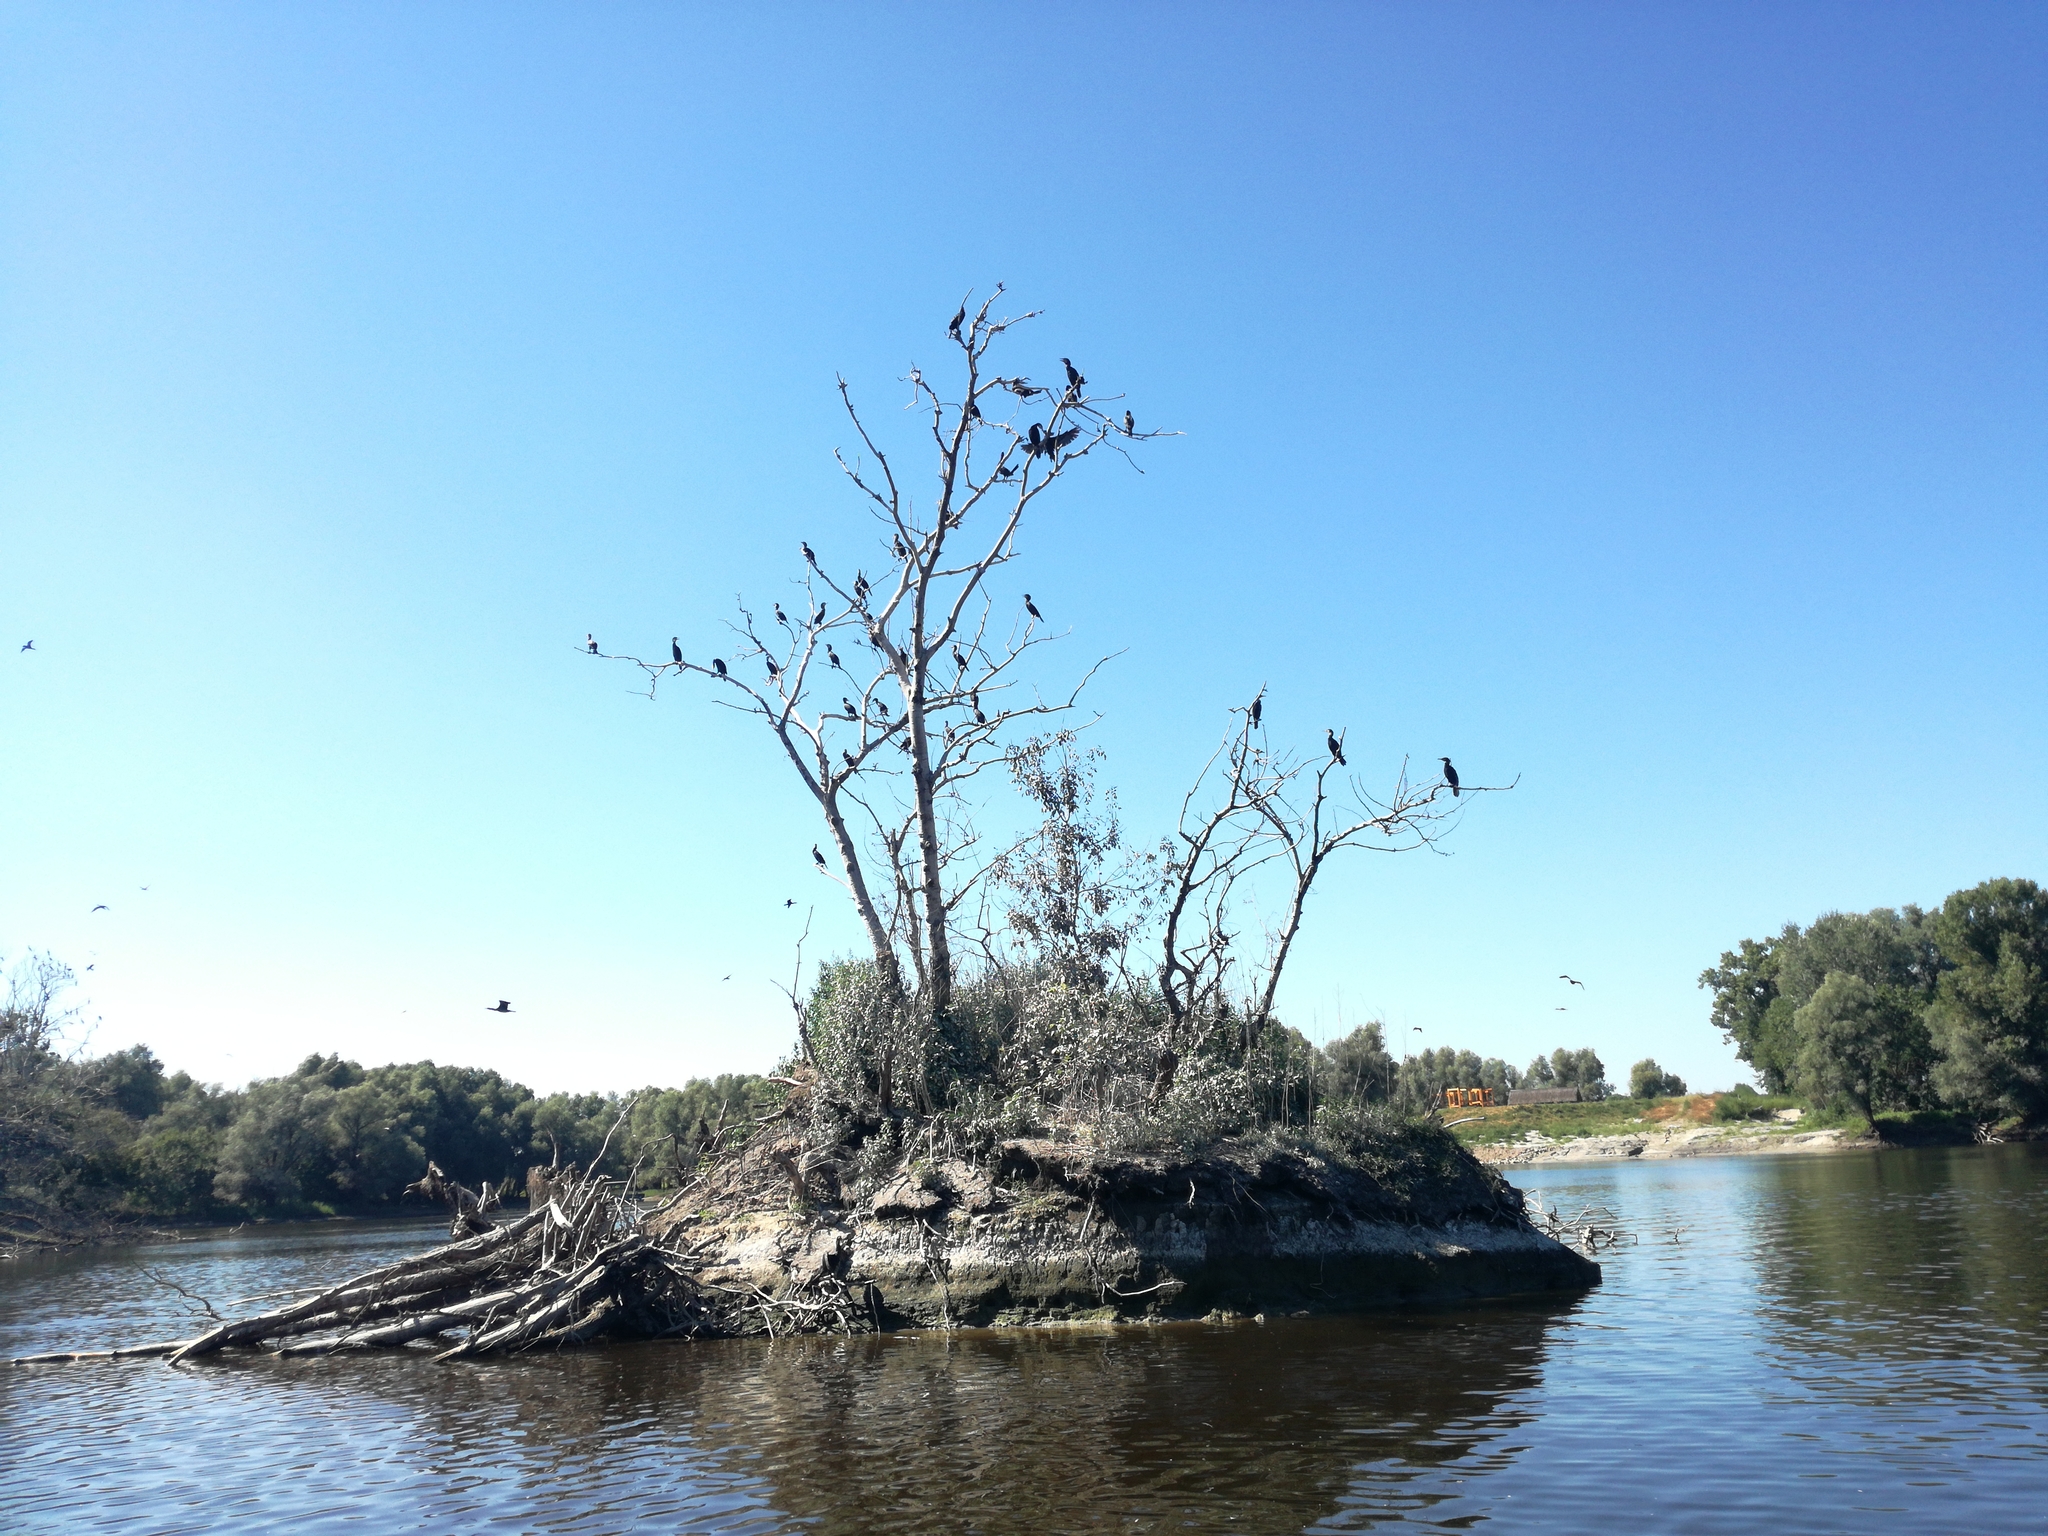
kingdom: Animalia
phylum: Chordata
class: Aves
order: Suliformes
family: Phalacrocoracidae
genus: Phalacrocorax
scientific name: Phalacrocorax carbo
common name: Great cormorant
